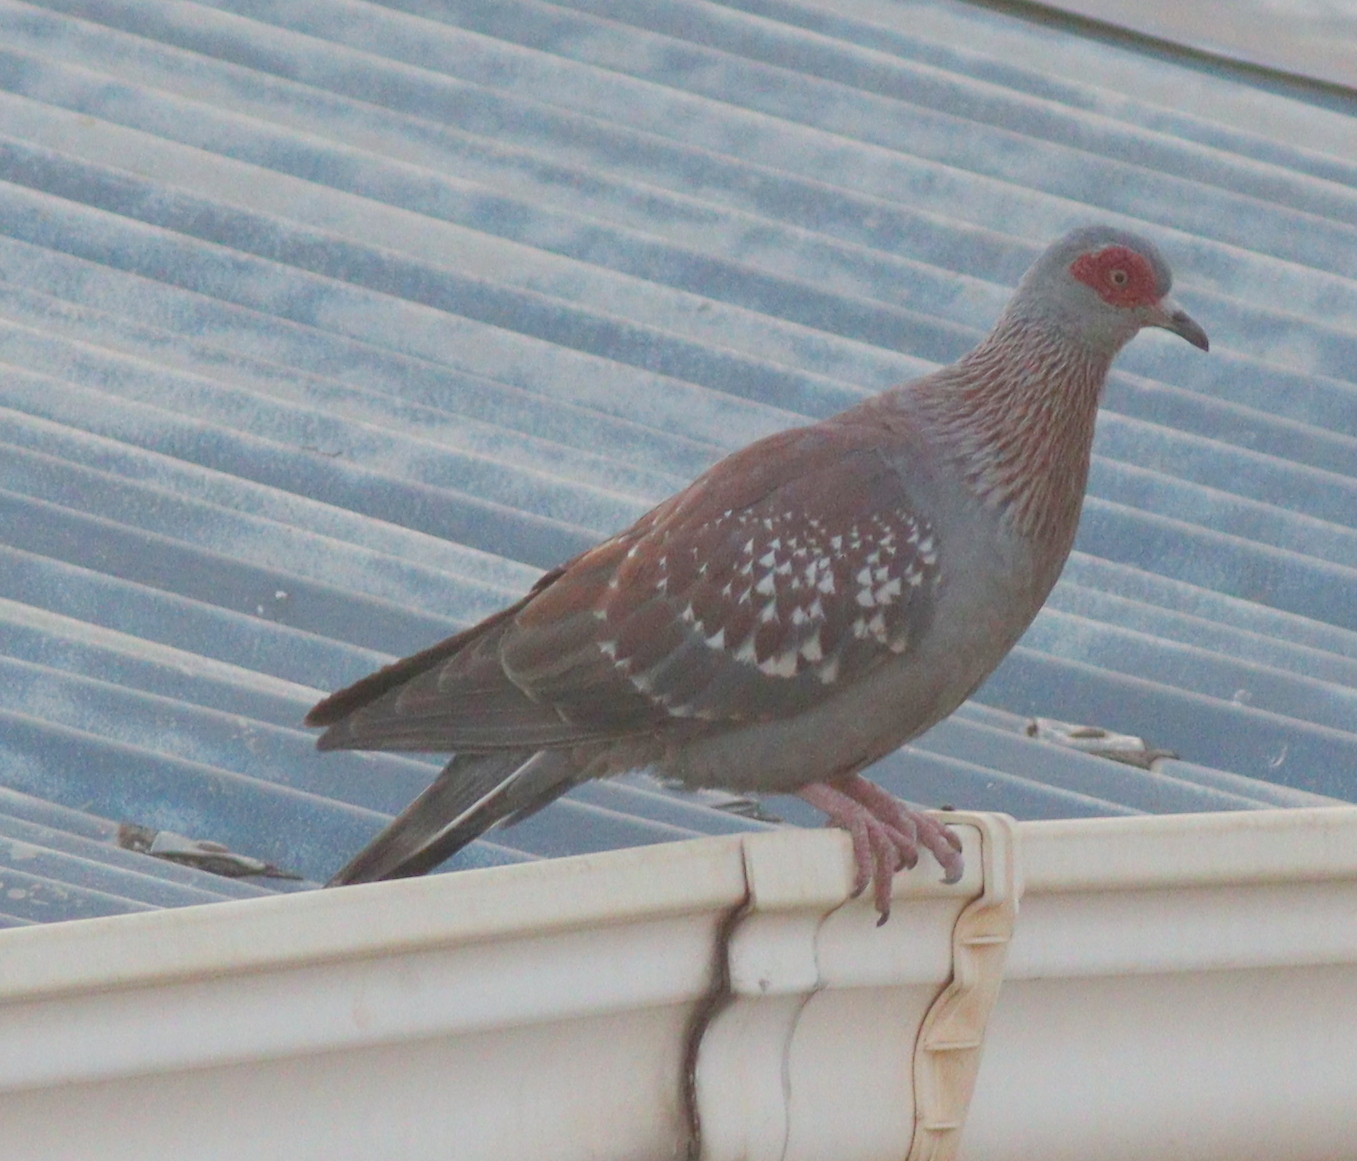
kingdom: Animalia
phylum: Chordata
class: Aves
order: Columbiformes
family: Columbidae
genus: Columba
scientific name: Columba guinea
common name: Speckled pigeon
